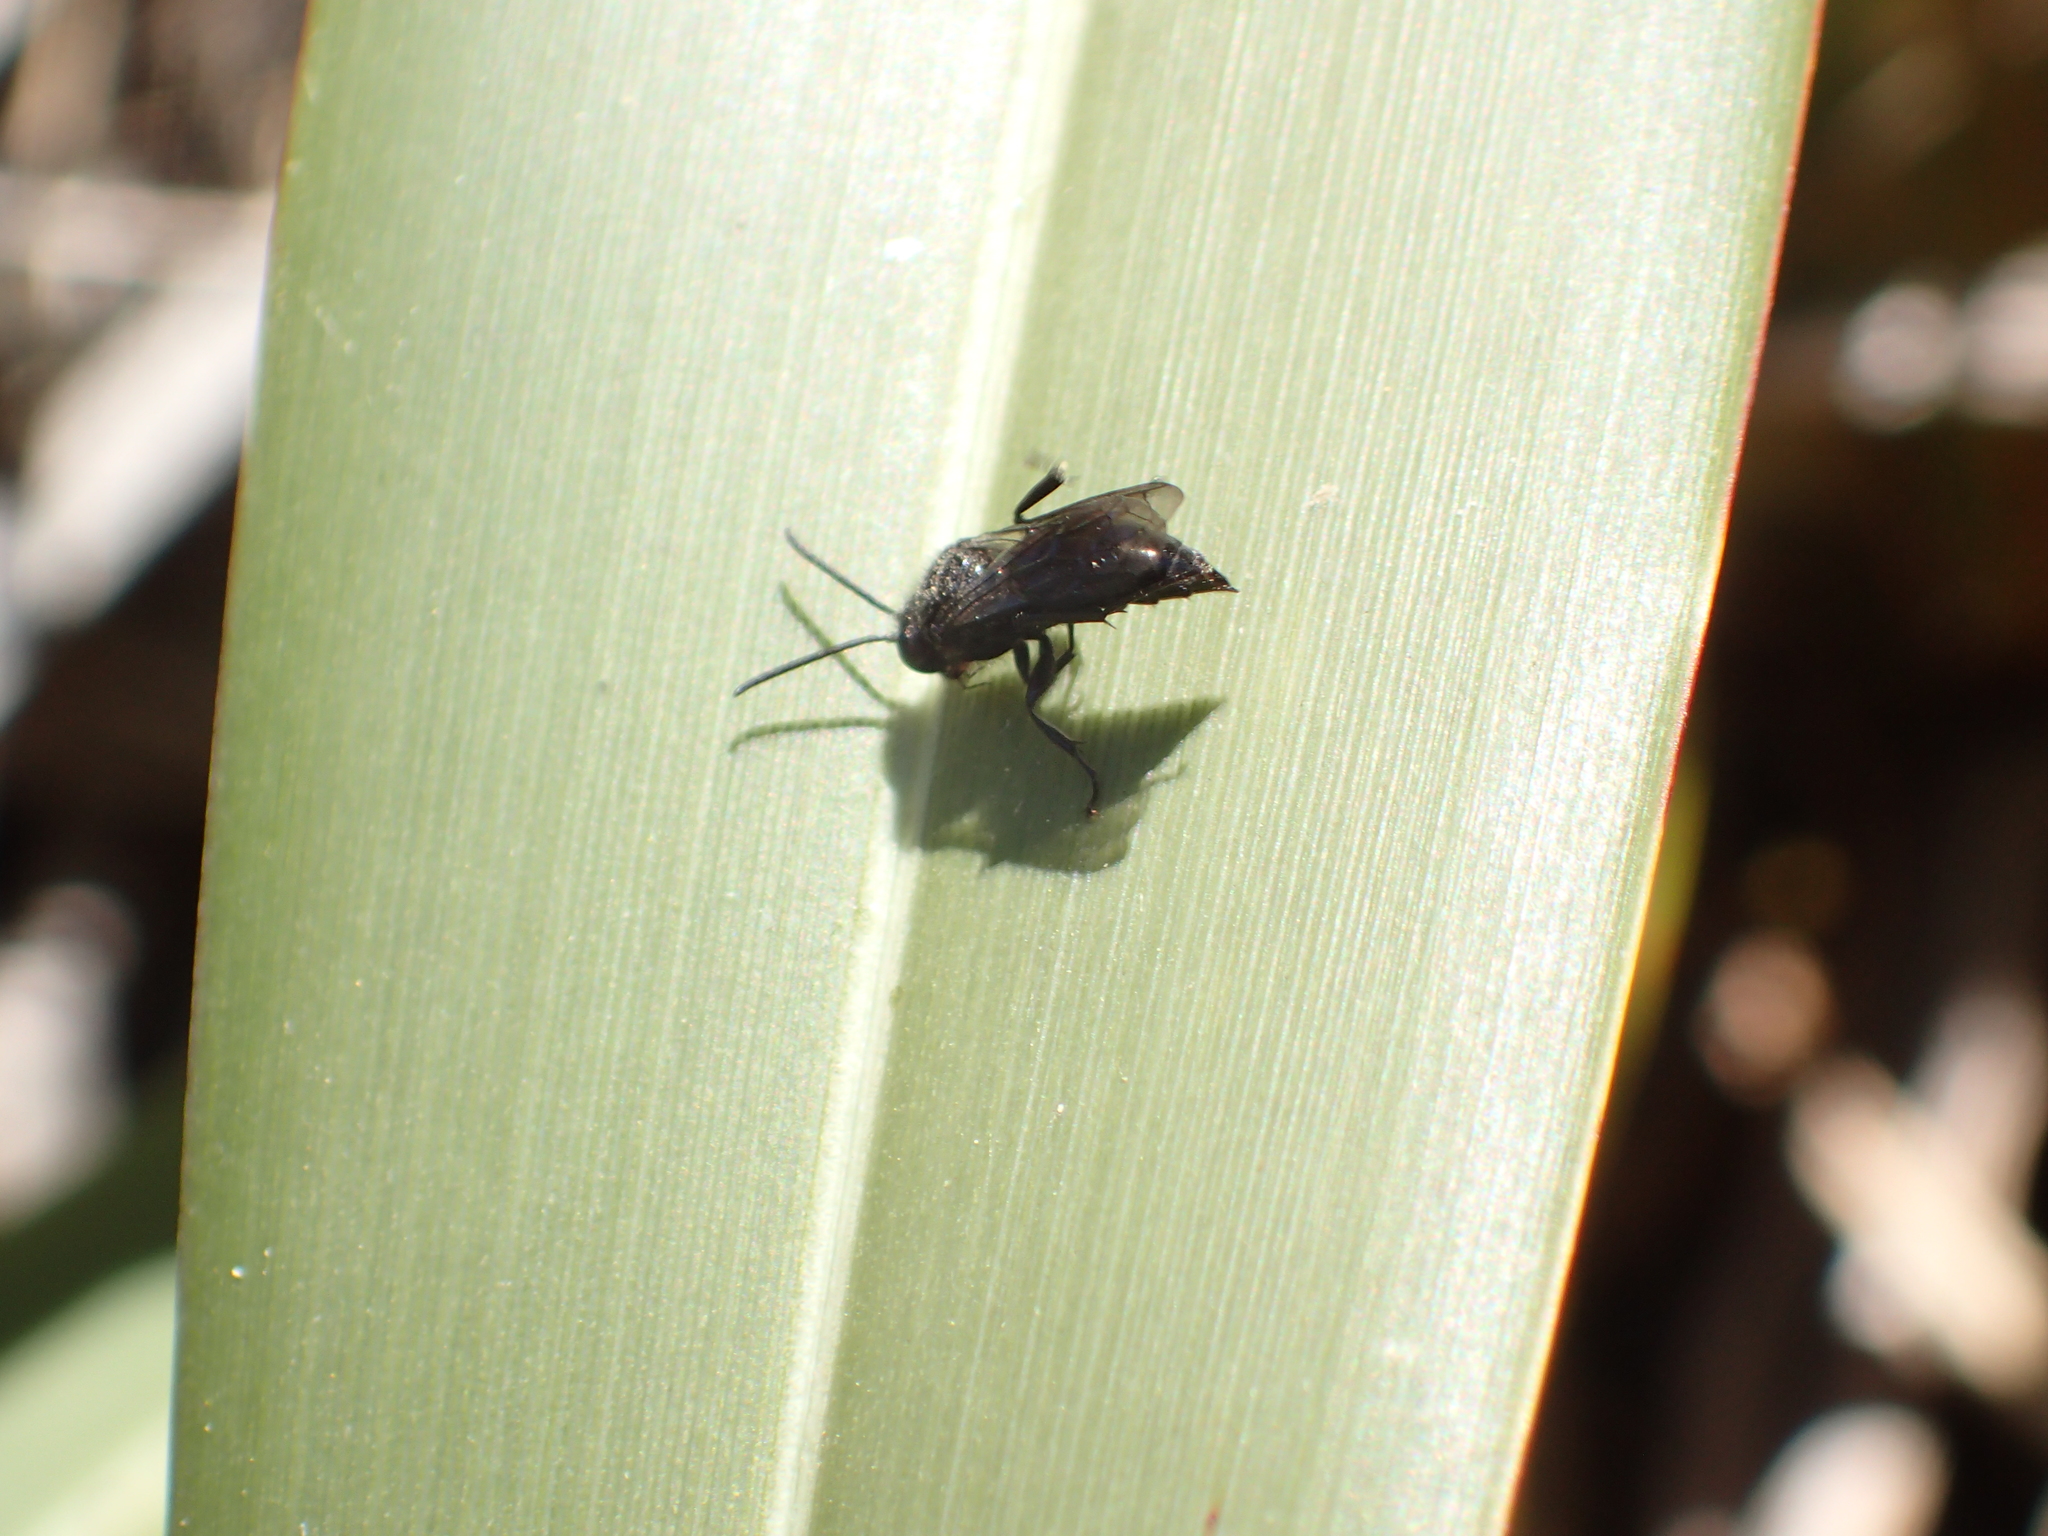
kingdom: Animalia
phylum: Arthropoda
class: Insecta
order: Hymenoptera
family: Crabronidae
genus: Argogorytes
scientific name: Argogorytes carbonarius
